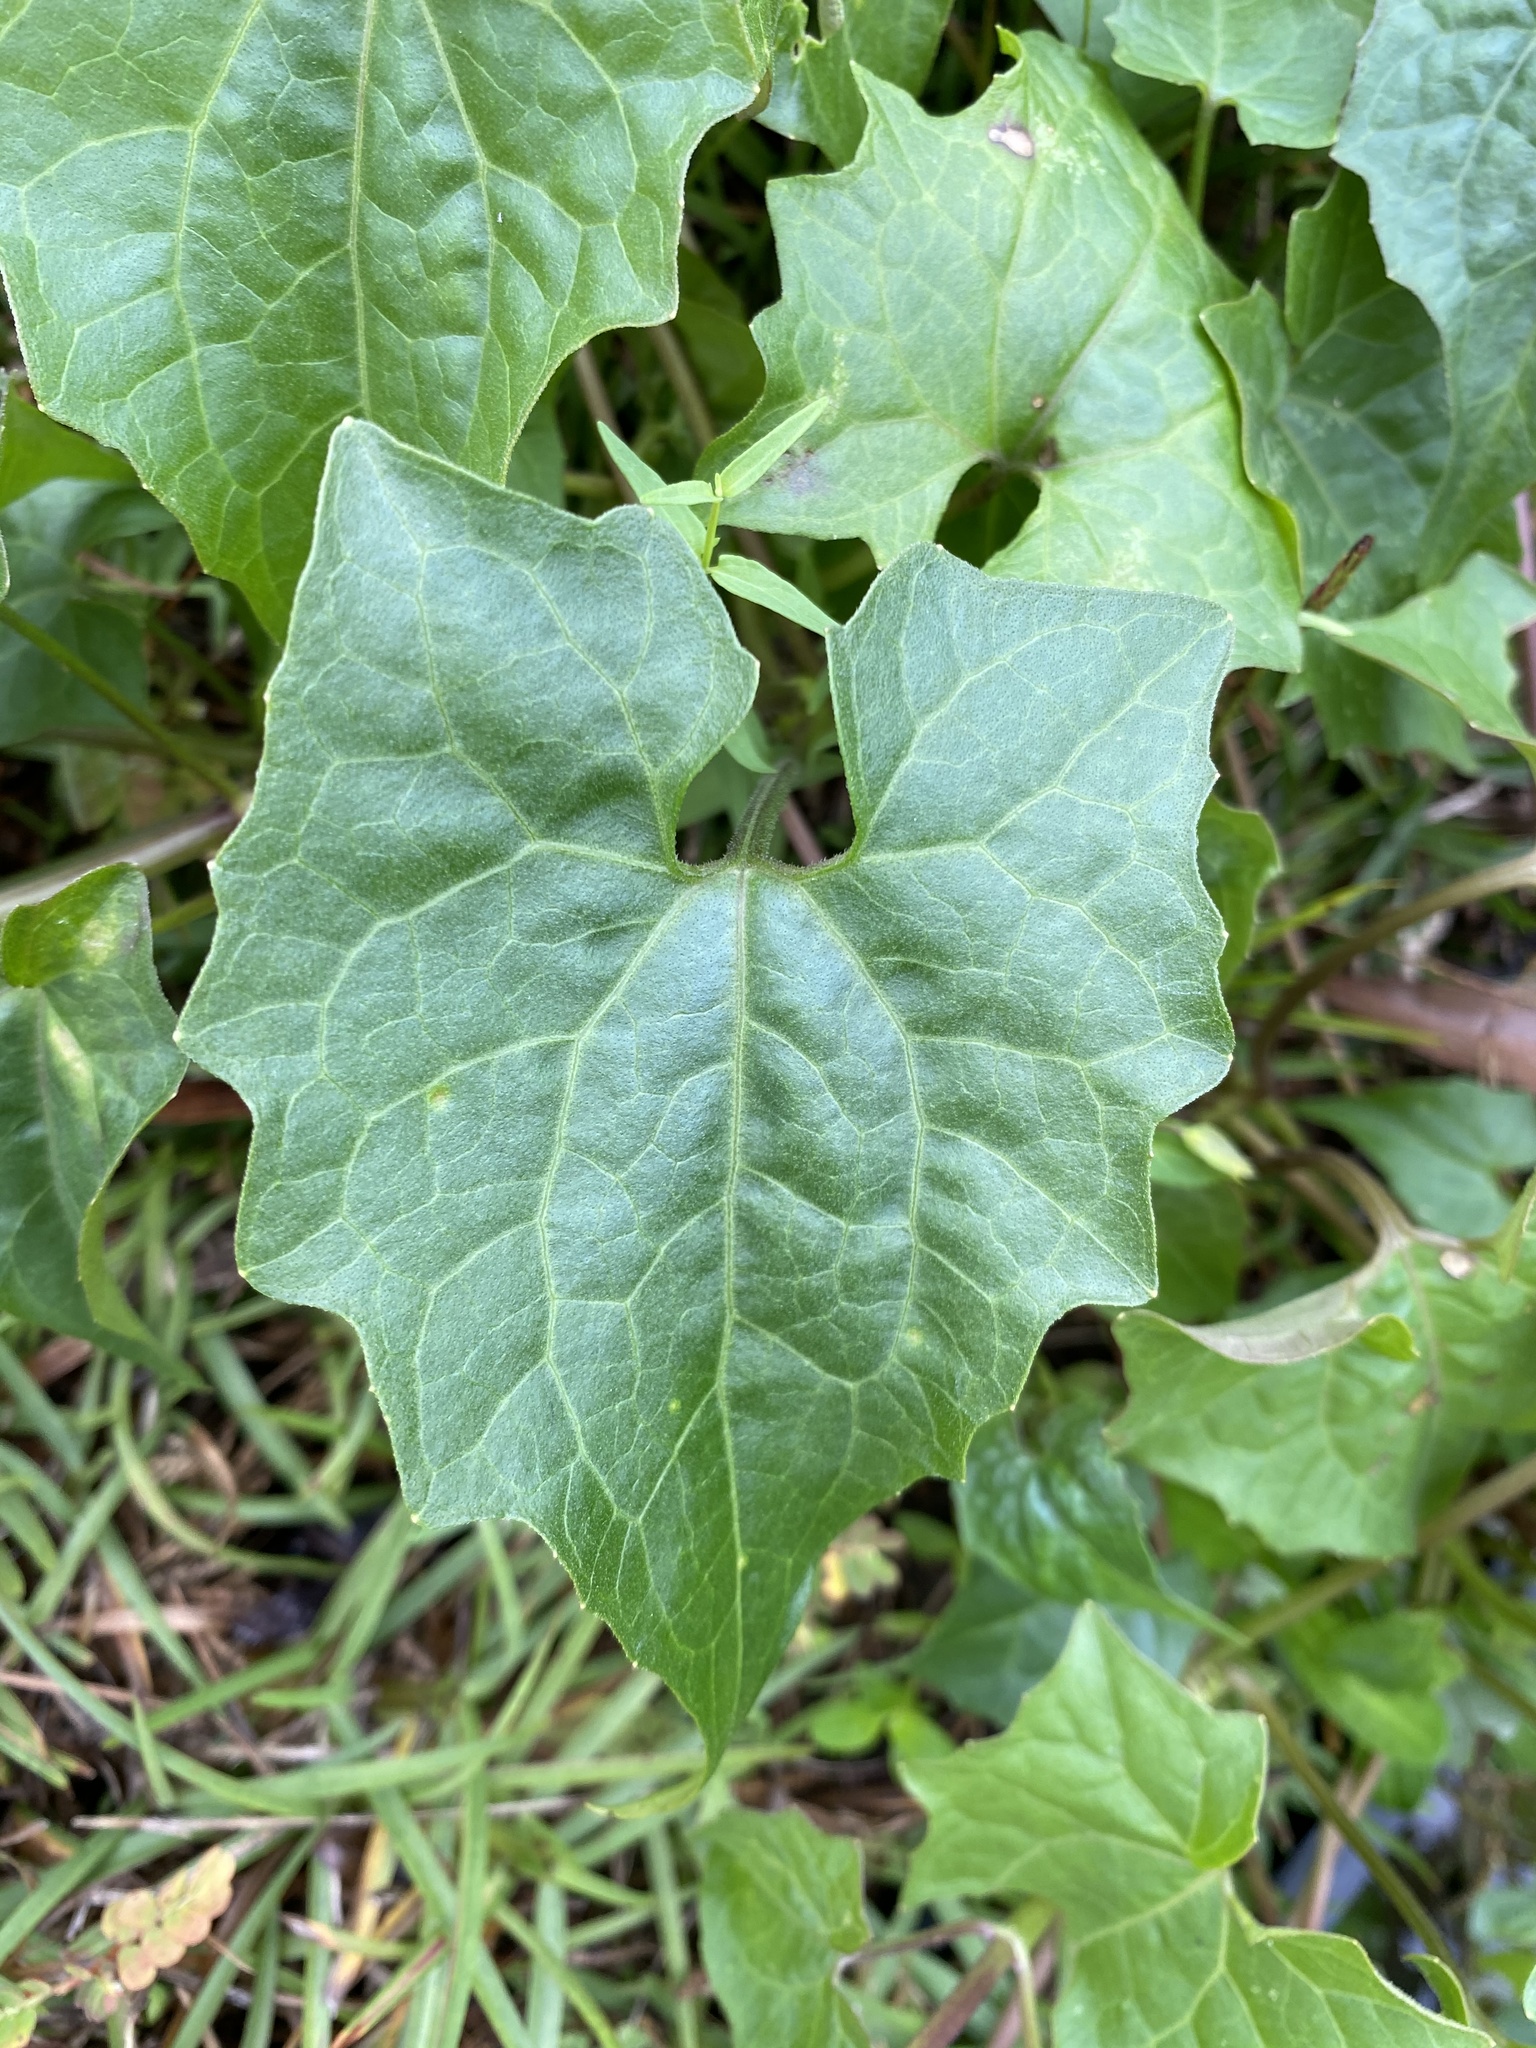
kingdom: Plantae
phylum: Tracheophyta
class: Magnoliopsida
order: Asterales
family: Asteraceae
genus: Mikania
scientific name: Mikania scandens
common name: Climbing hempvine
